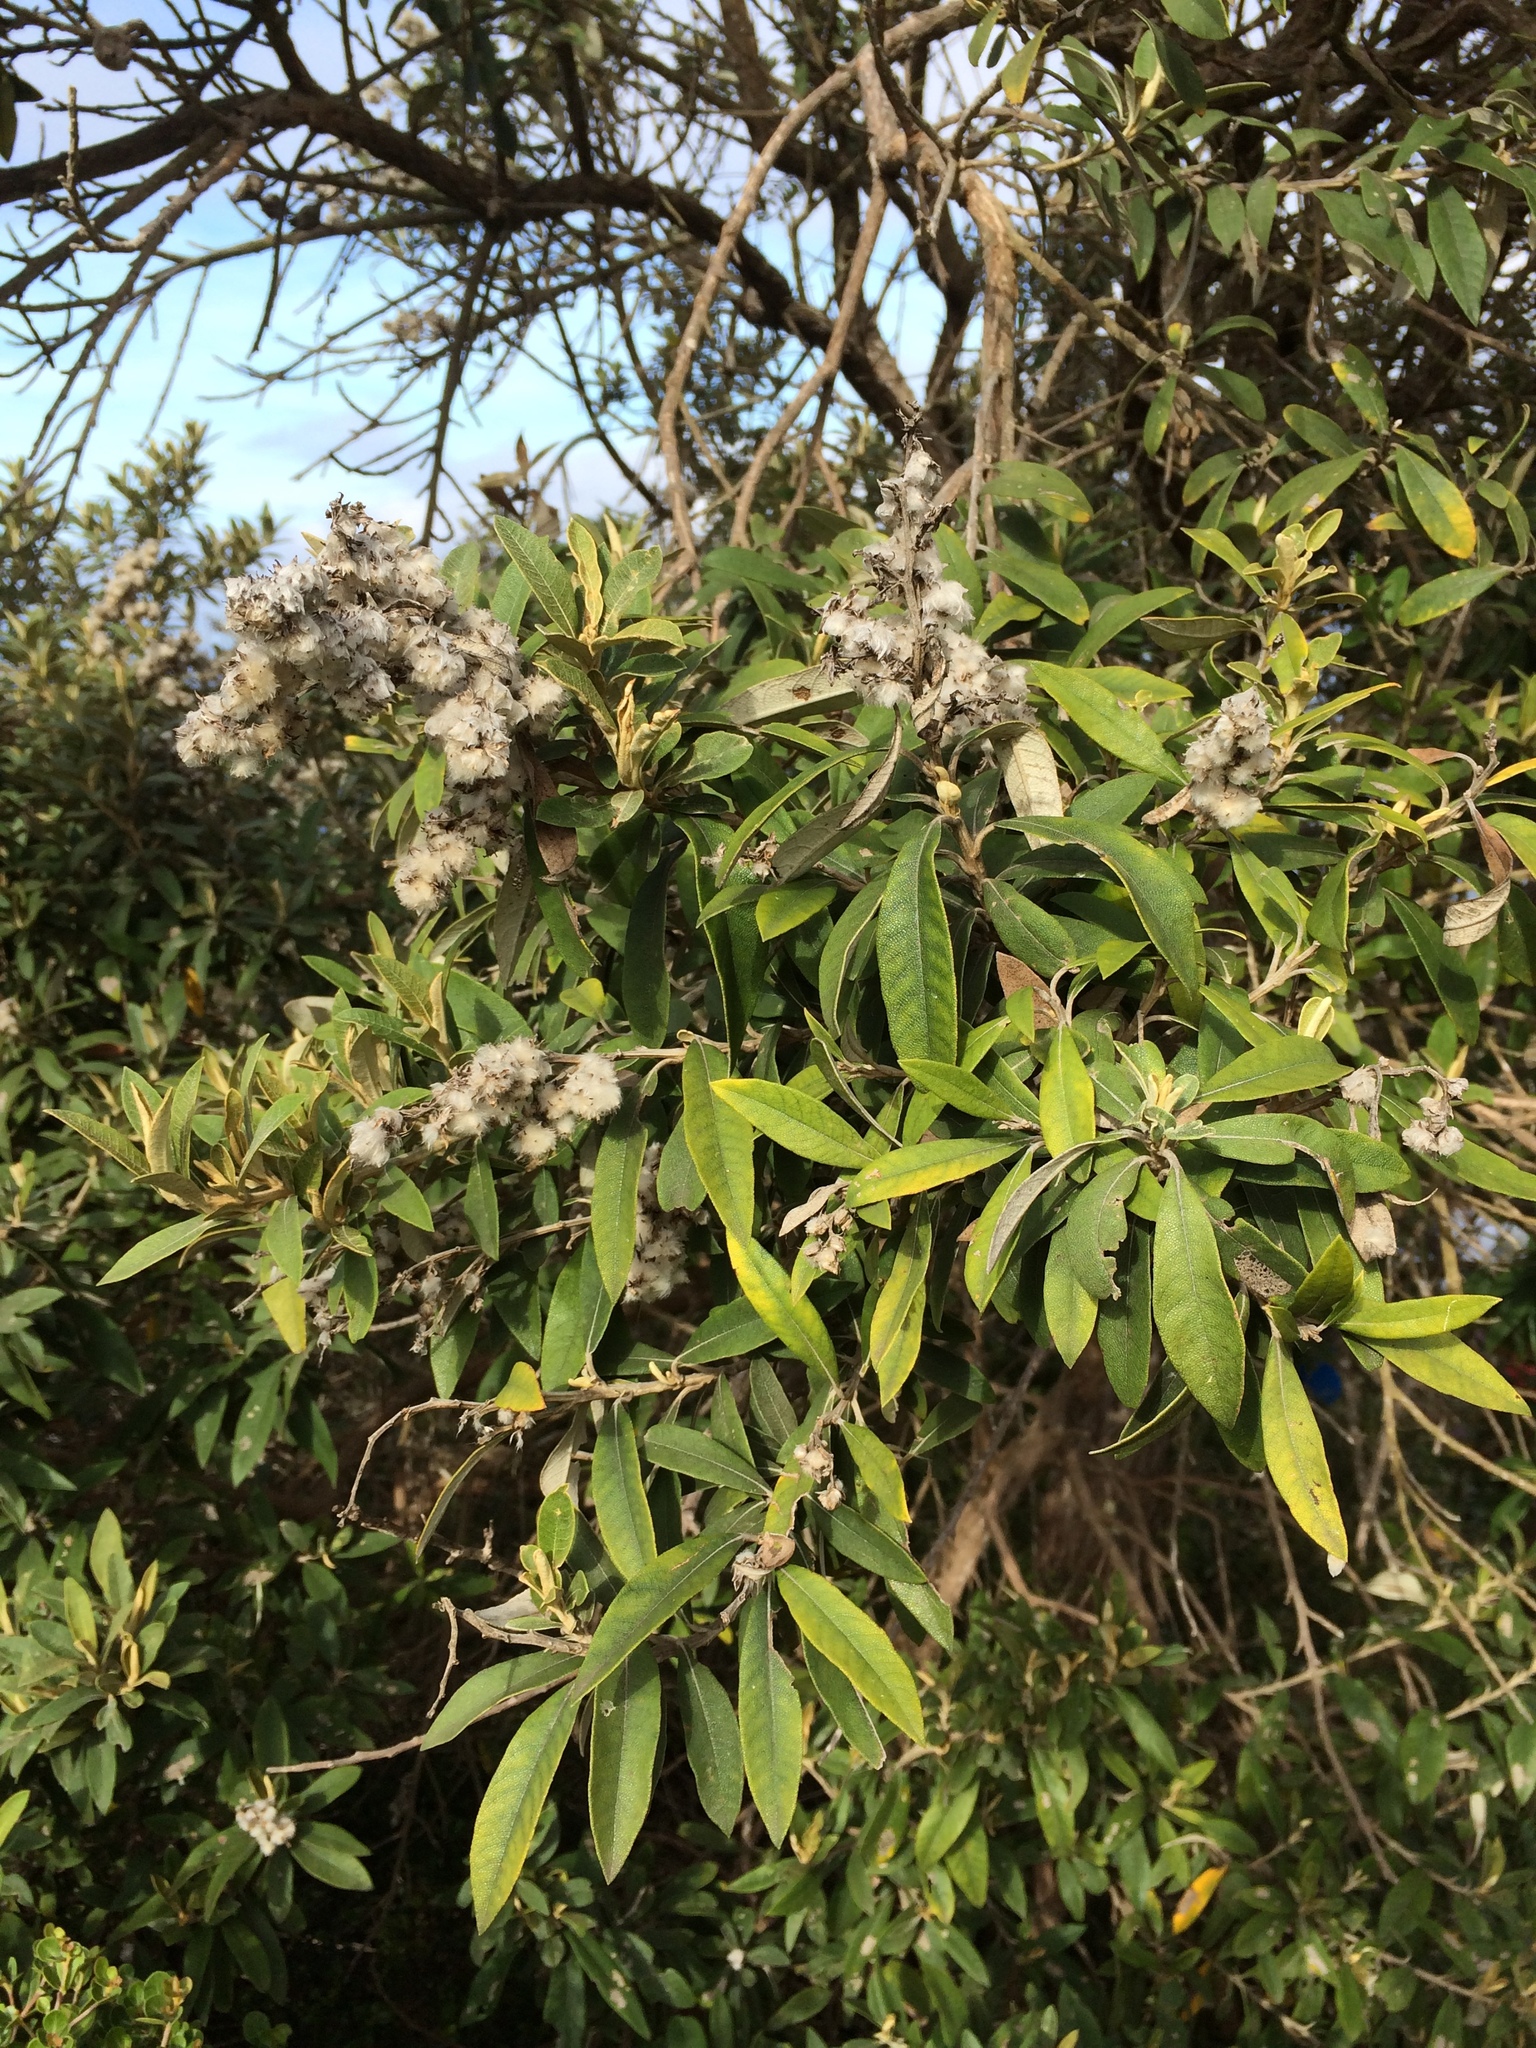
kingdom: Plantae
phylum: Tracheophyta
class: Magnoliopsida
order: Asterales
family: Asteraceae
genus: Tarchonanthus
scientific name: Tarchonanthus littoralis
